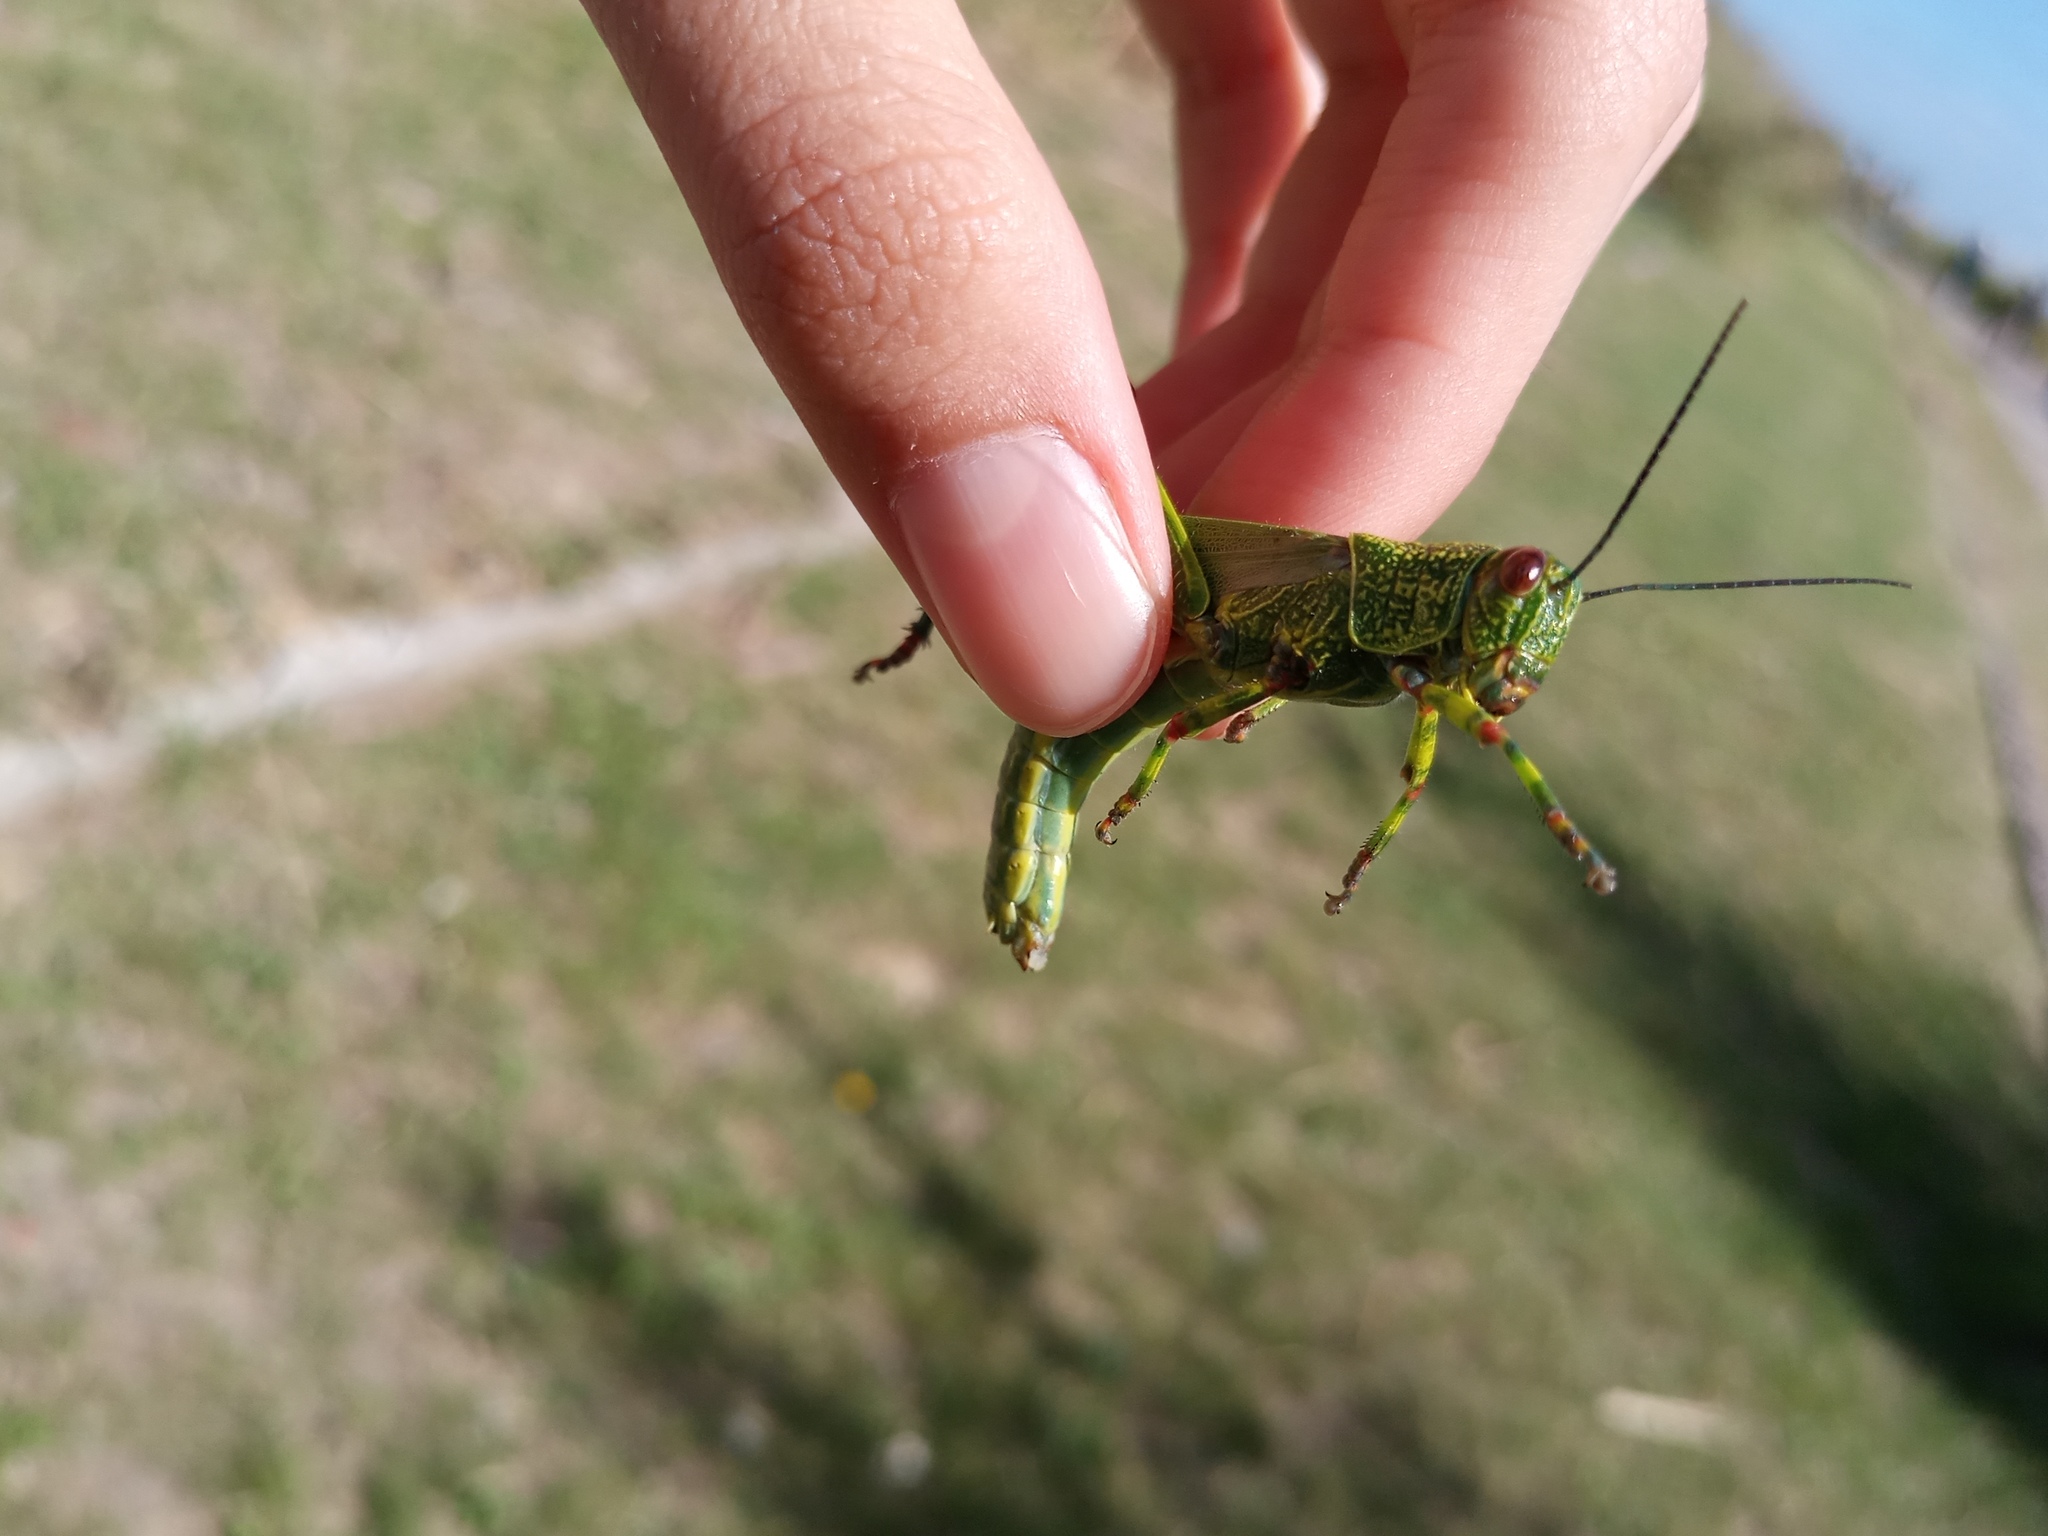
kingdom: Animalia
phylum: Arthropoda
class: Insecta
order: Orthoptera
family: Romaleidae
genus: Zoniopoda
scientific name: Zoniopoda tarsata
